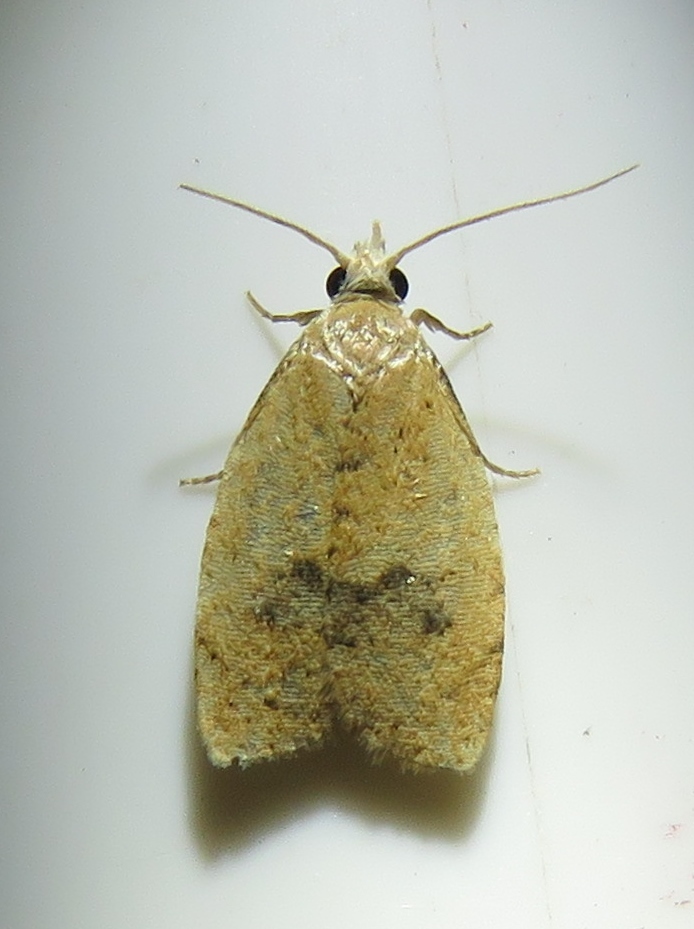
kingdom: Animalia
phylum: Arthropoda
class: Insecta
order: Lepidoptera
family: Tortricidae
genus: Sparganothoides
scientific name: Sparganothoides lentiginosana
